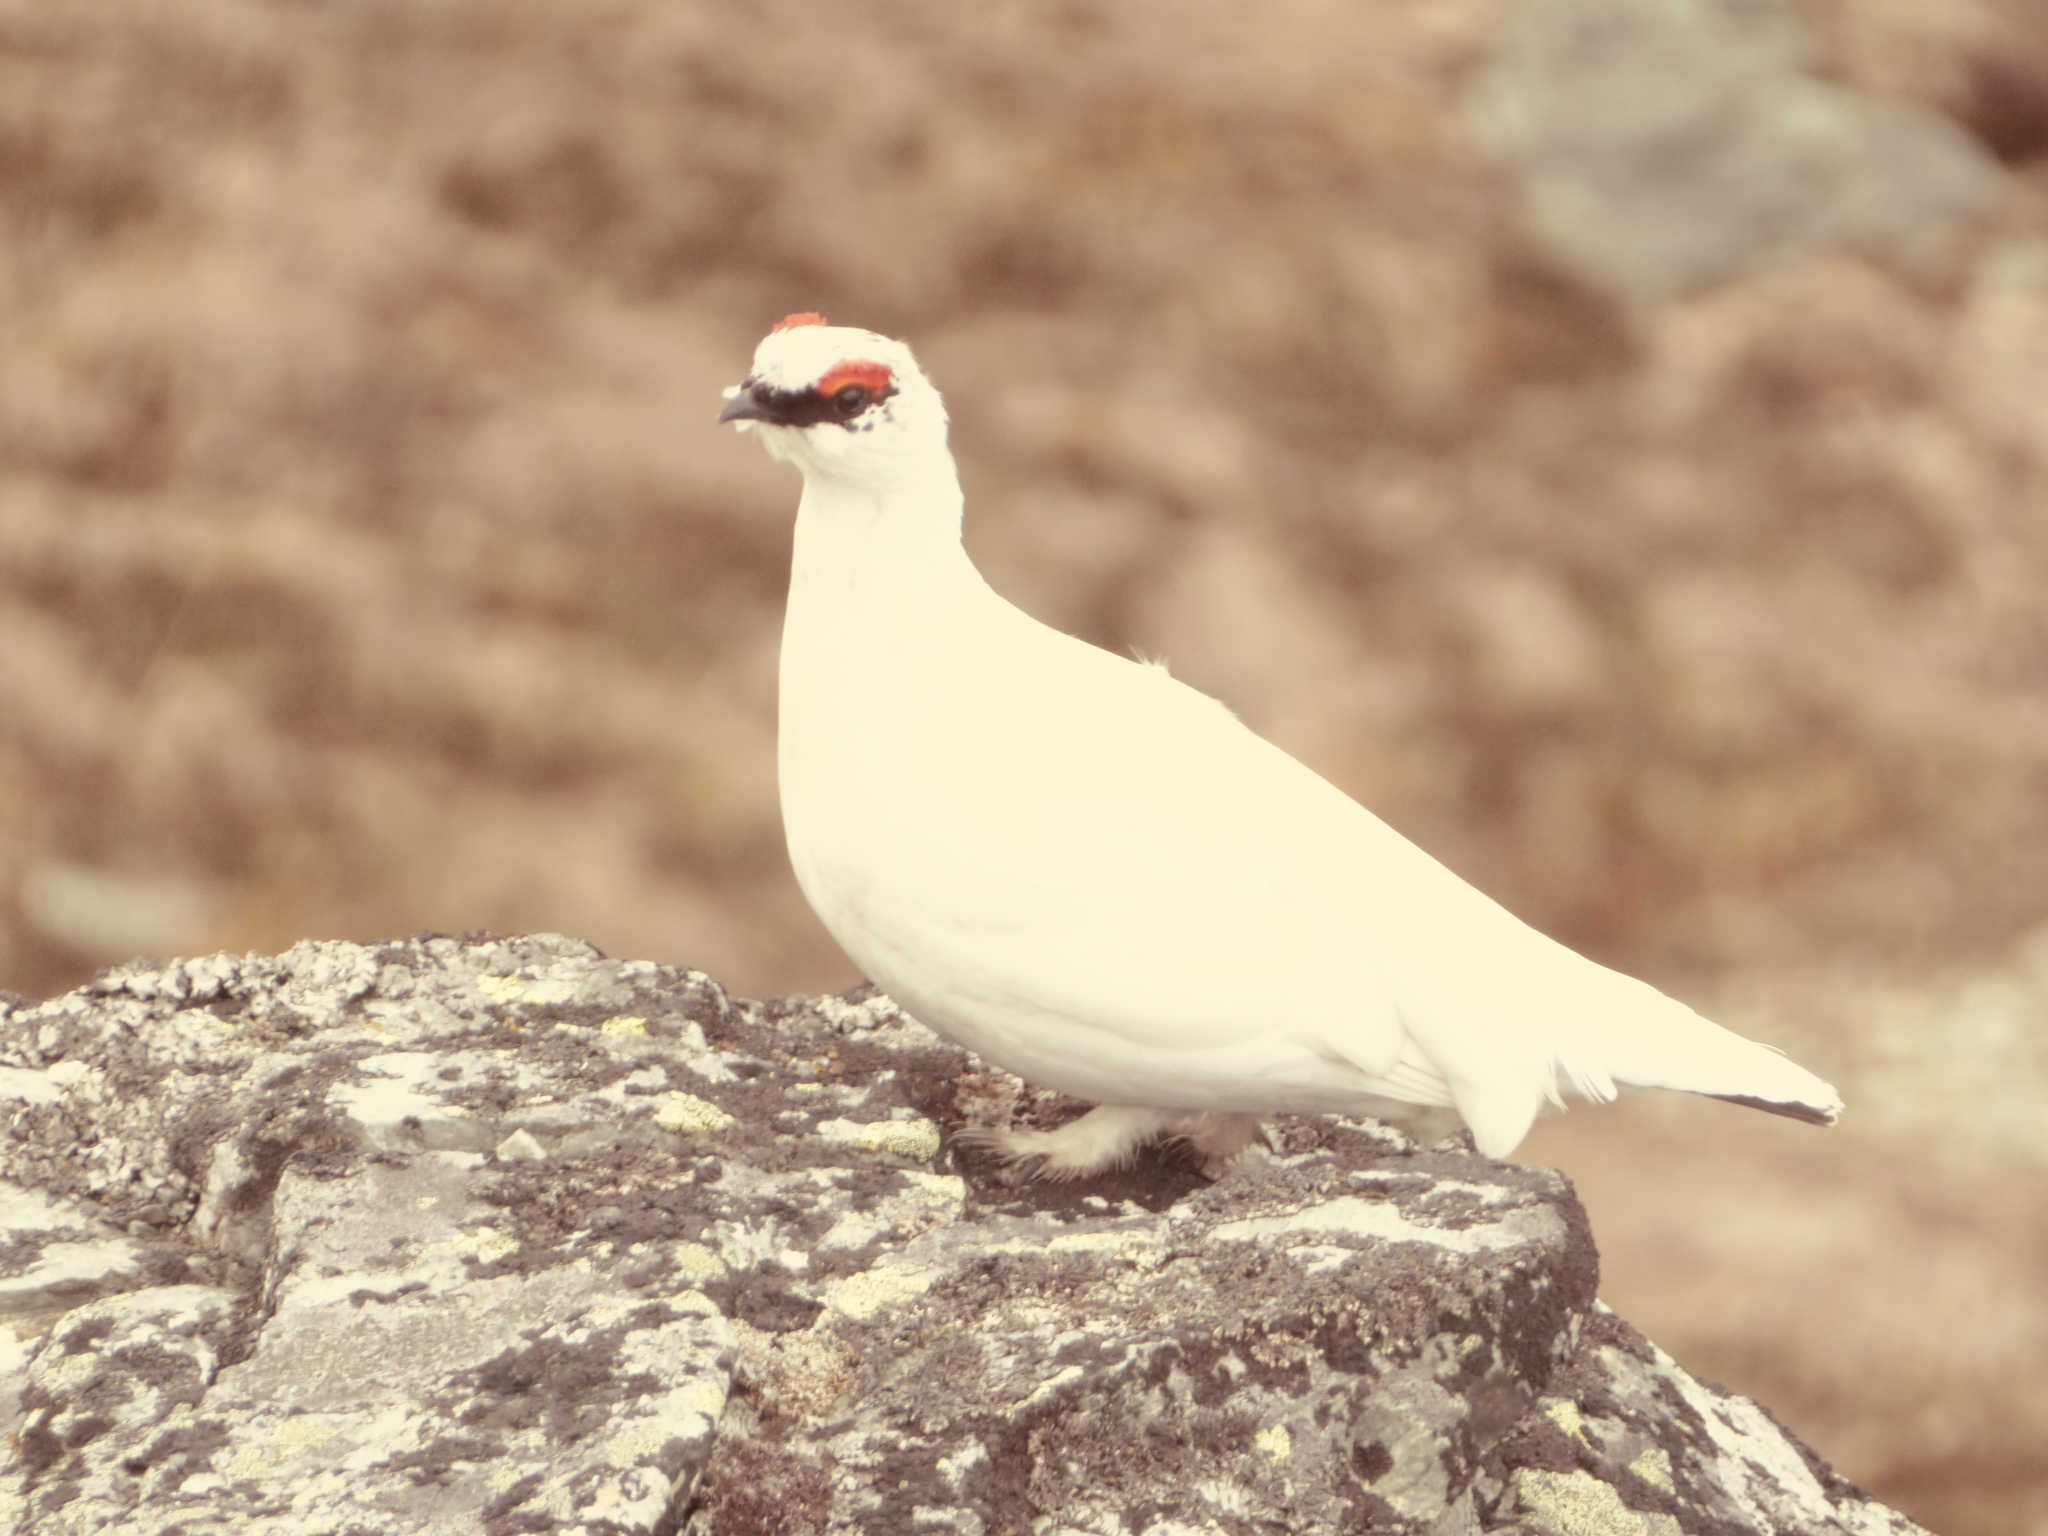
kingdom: Animalia
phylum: Chordata
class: Aves
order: Galliformes
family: Phasianidae
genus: Lagopus
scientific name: Lagopus muta
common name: Rock ptarmigan
